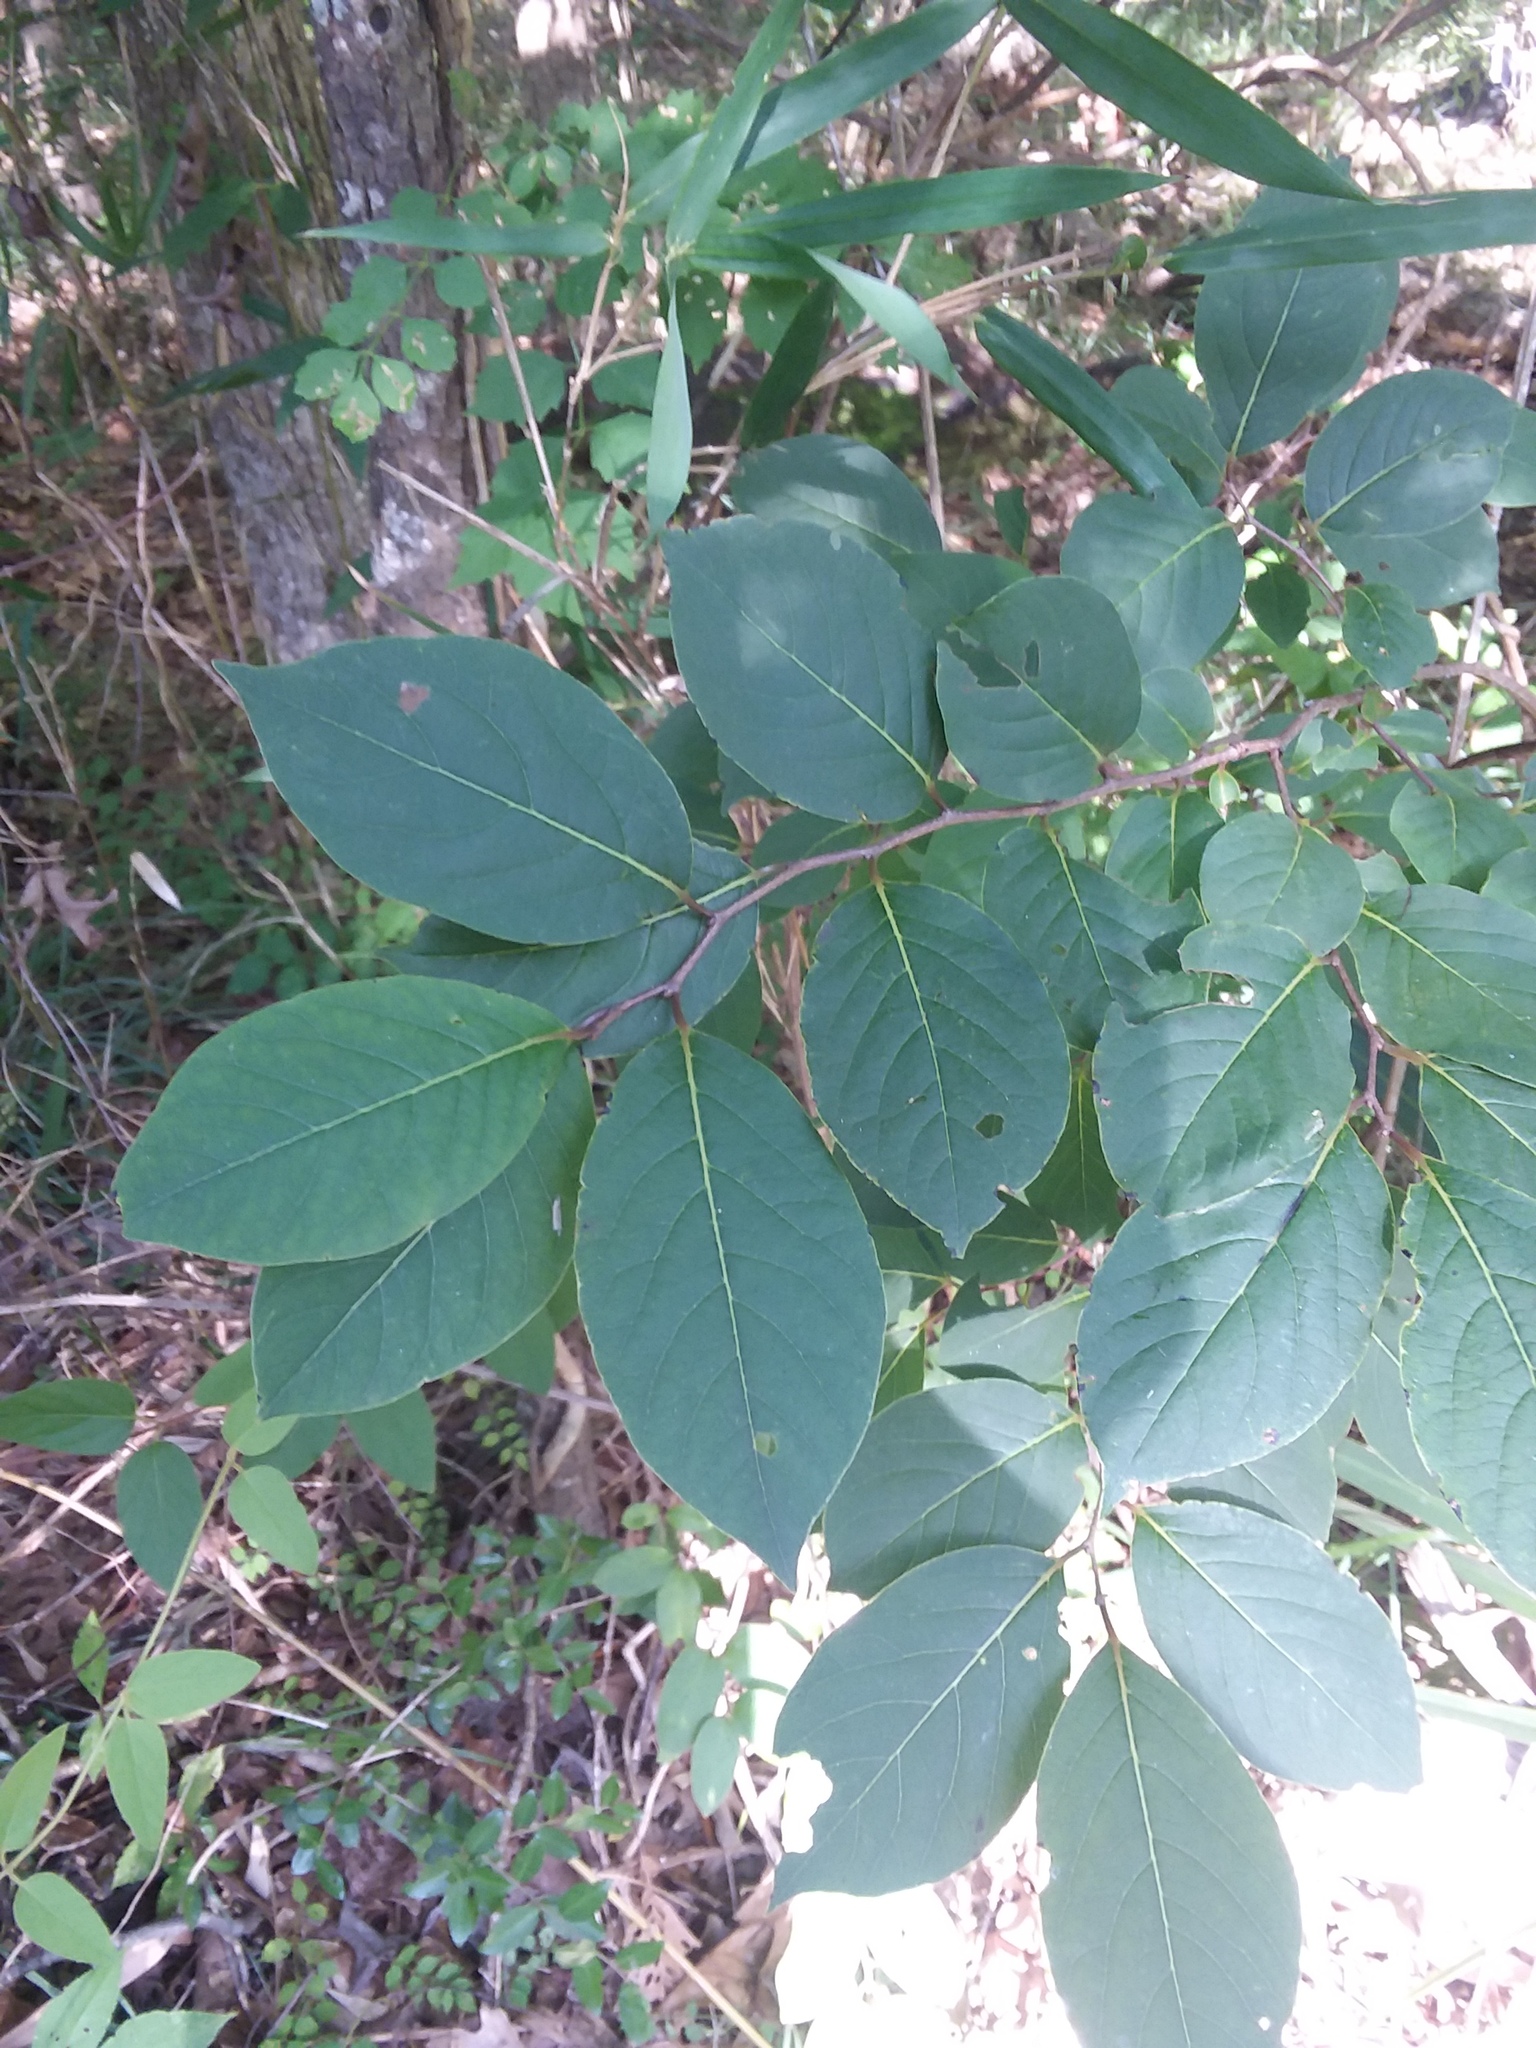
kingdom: Plantae
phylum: Tracheophyta
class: Magnoliopsida
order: Ericales
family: Ebenaceae
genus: Diospyros
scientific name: Diospyros virginiana
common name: Persimmon
